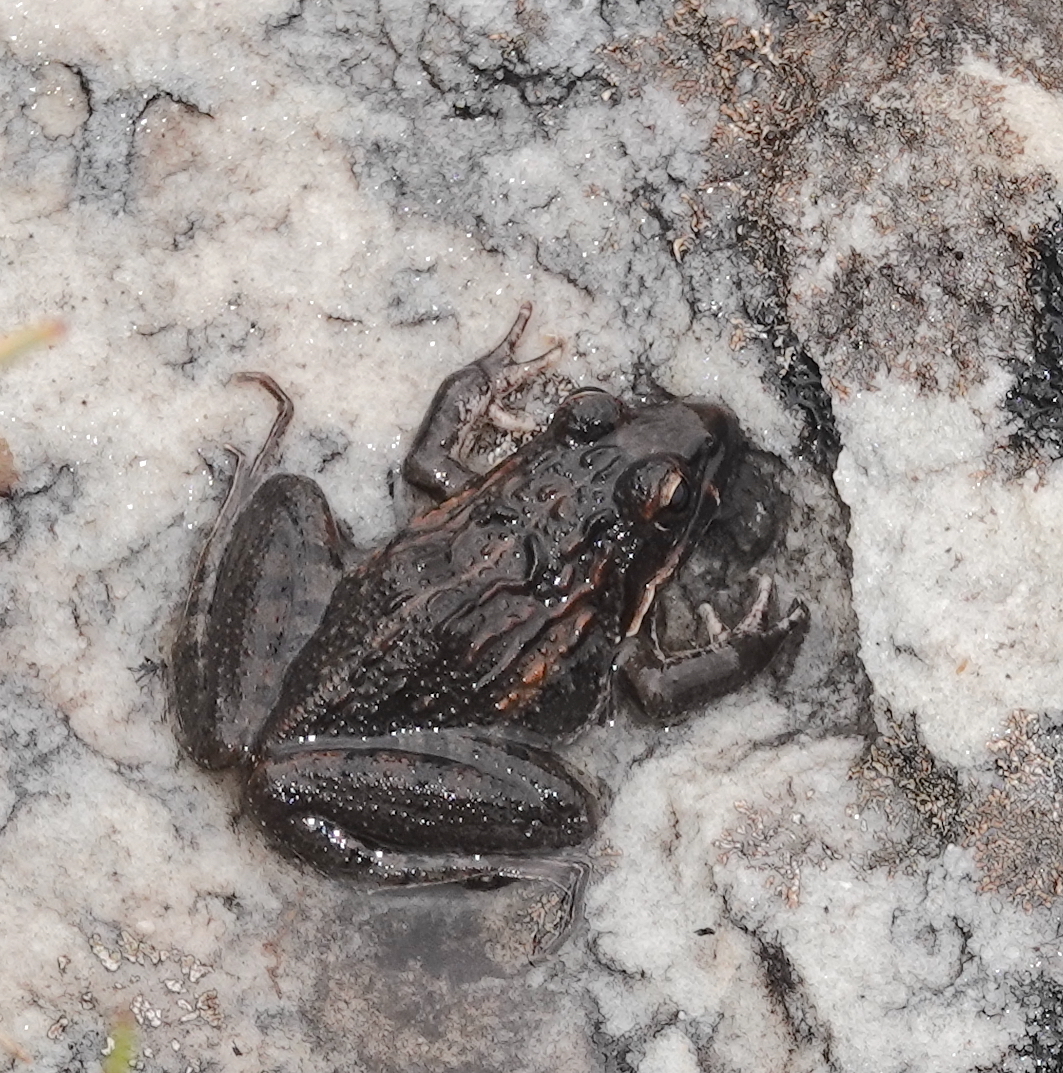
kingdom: Animalia
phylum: Chordata
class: Amphibia
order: Anura
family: Pyxicephalidae
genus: Strongylopus
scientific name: Strongylopus grayii
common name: Gray's stream frog
